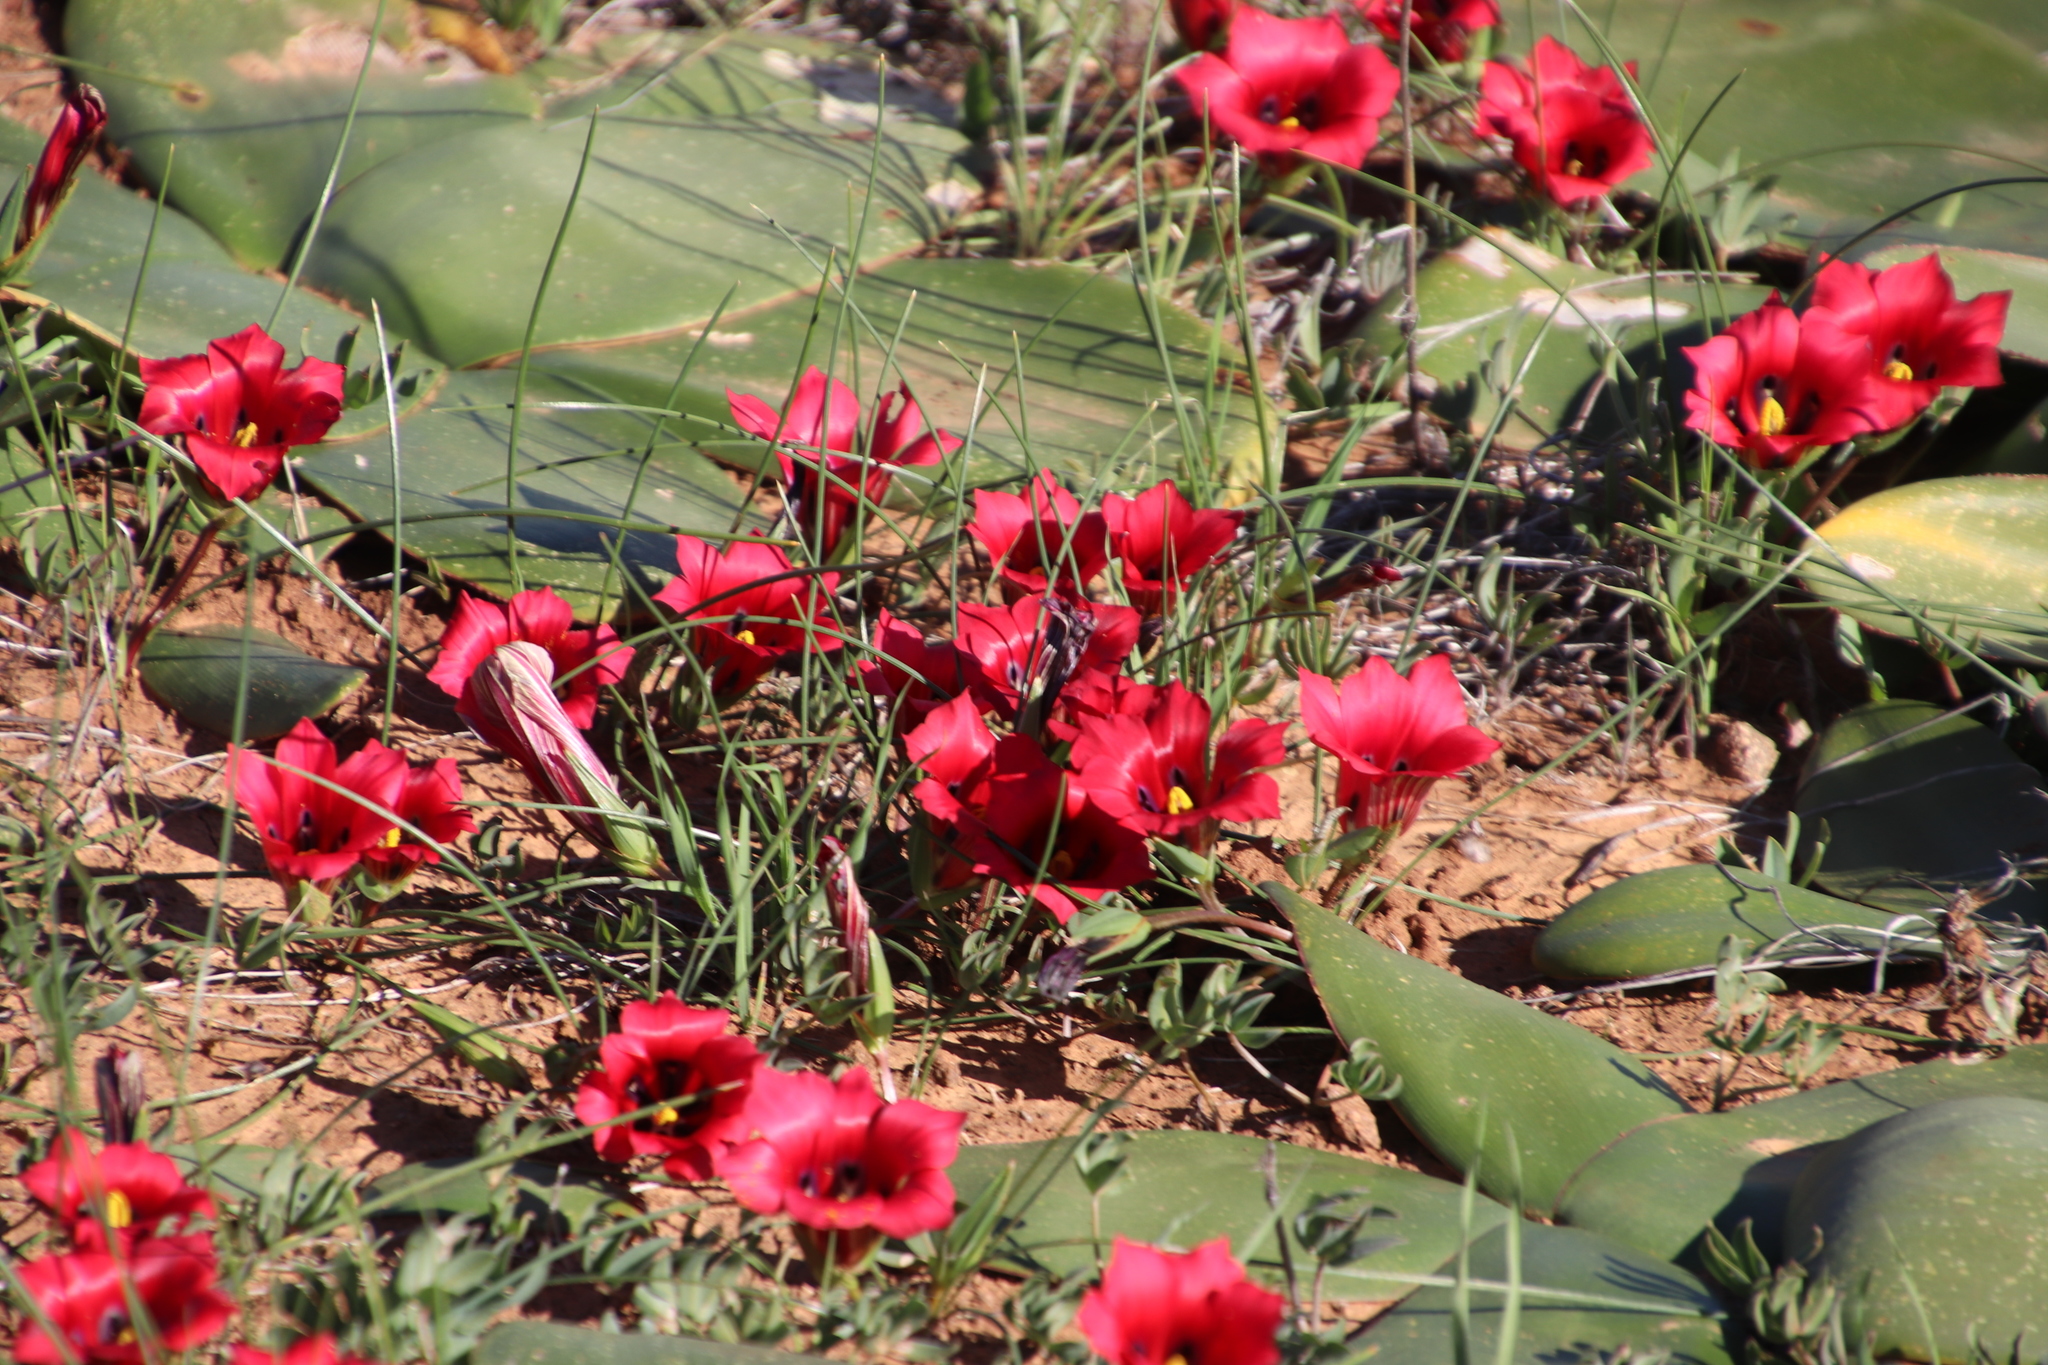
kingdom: Plantae
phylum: Tracheophyta
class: Liliopsida
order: Asparagales
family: Amaryllidaceae
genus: Brunsvigia
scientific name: Brunsvigia bosmaniae
